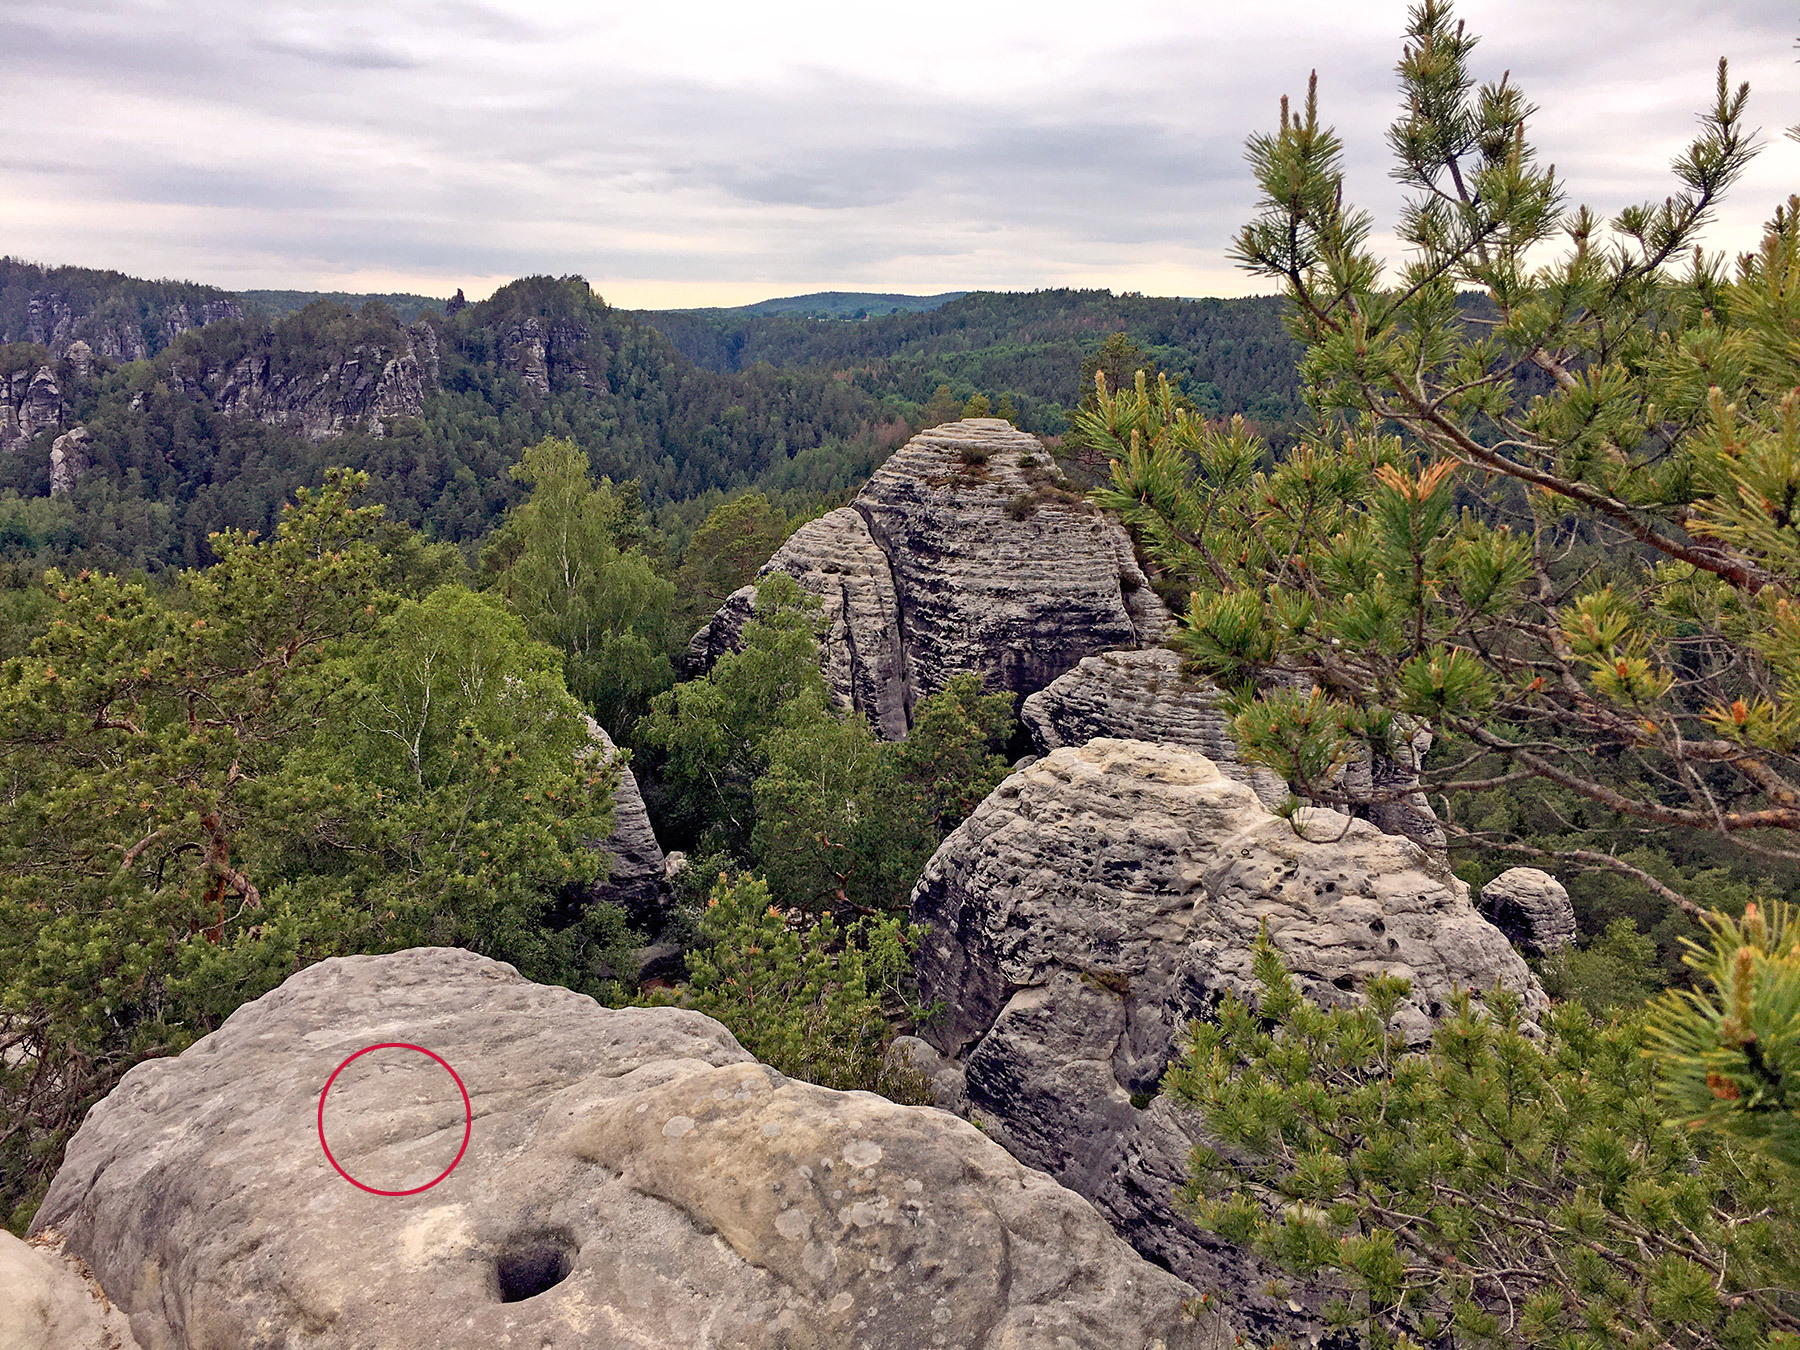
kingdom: Animalia
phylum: Arthropoda
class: Insecta
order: Hymenoptera
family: Formicidae
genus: Camponotus
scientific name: Camponotus ligniperdus
